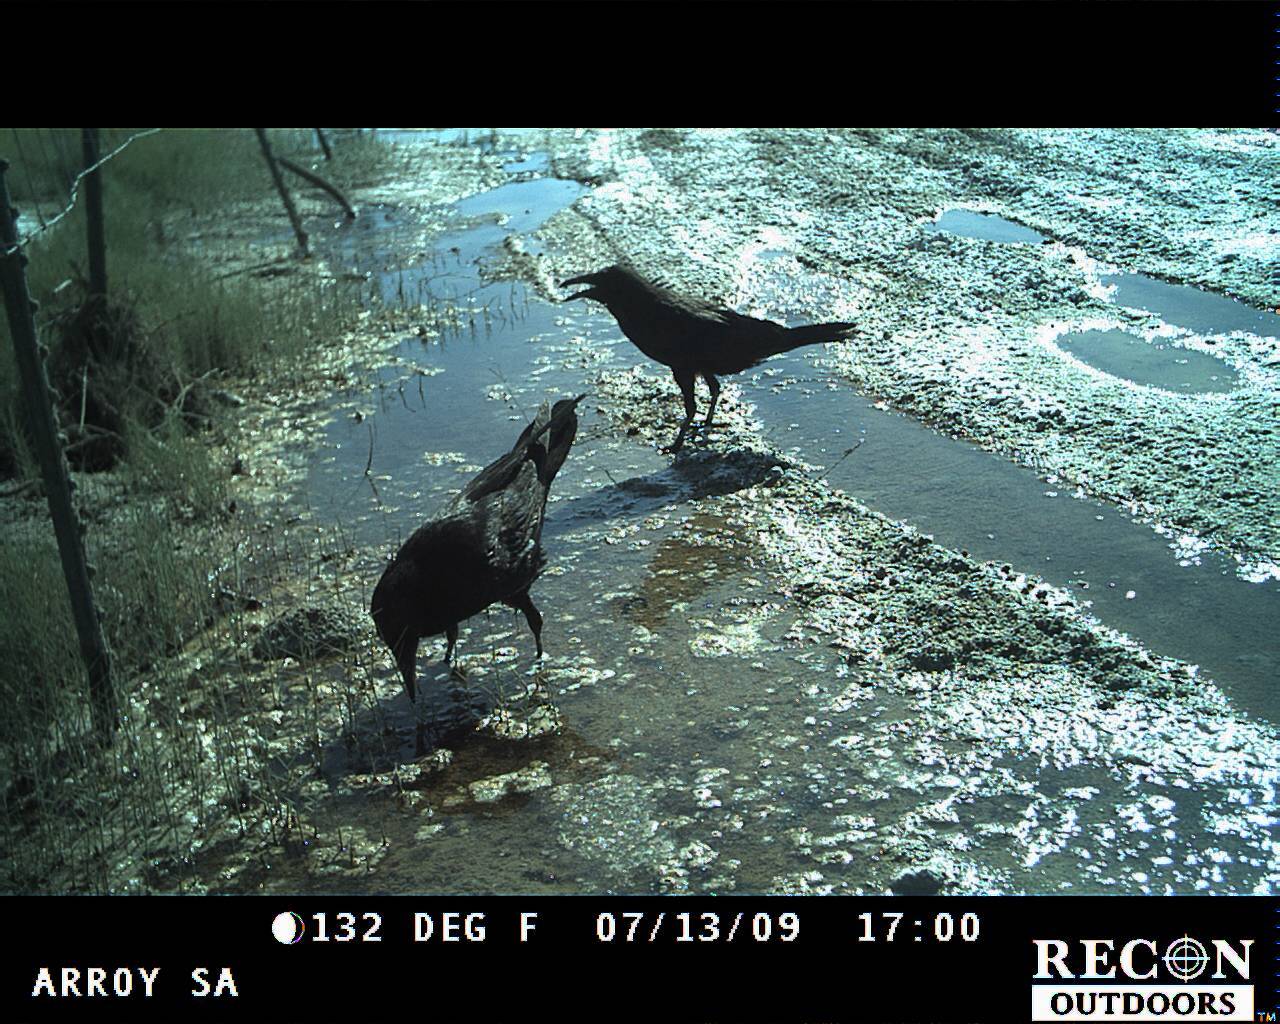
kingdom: Animalia
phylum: Chordata
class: Aves
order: Passeriformes
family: Corvidae
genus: Corvus
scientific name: Corvus corax
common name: Common raven
